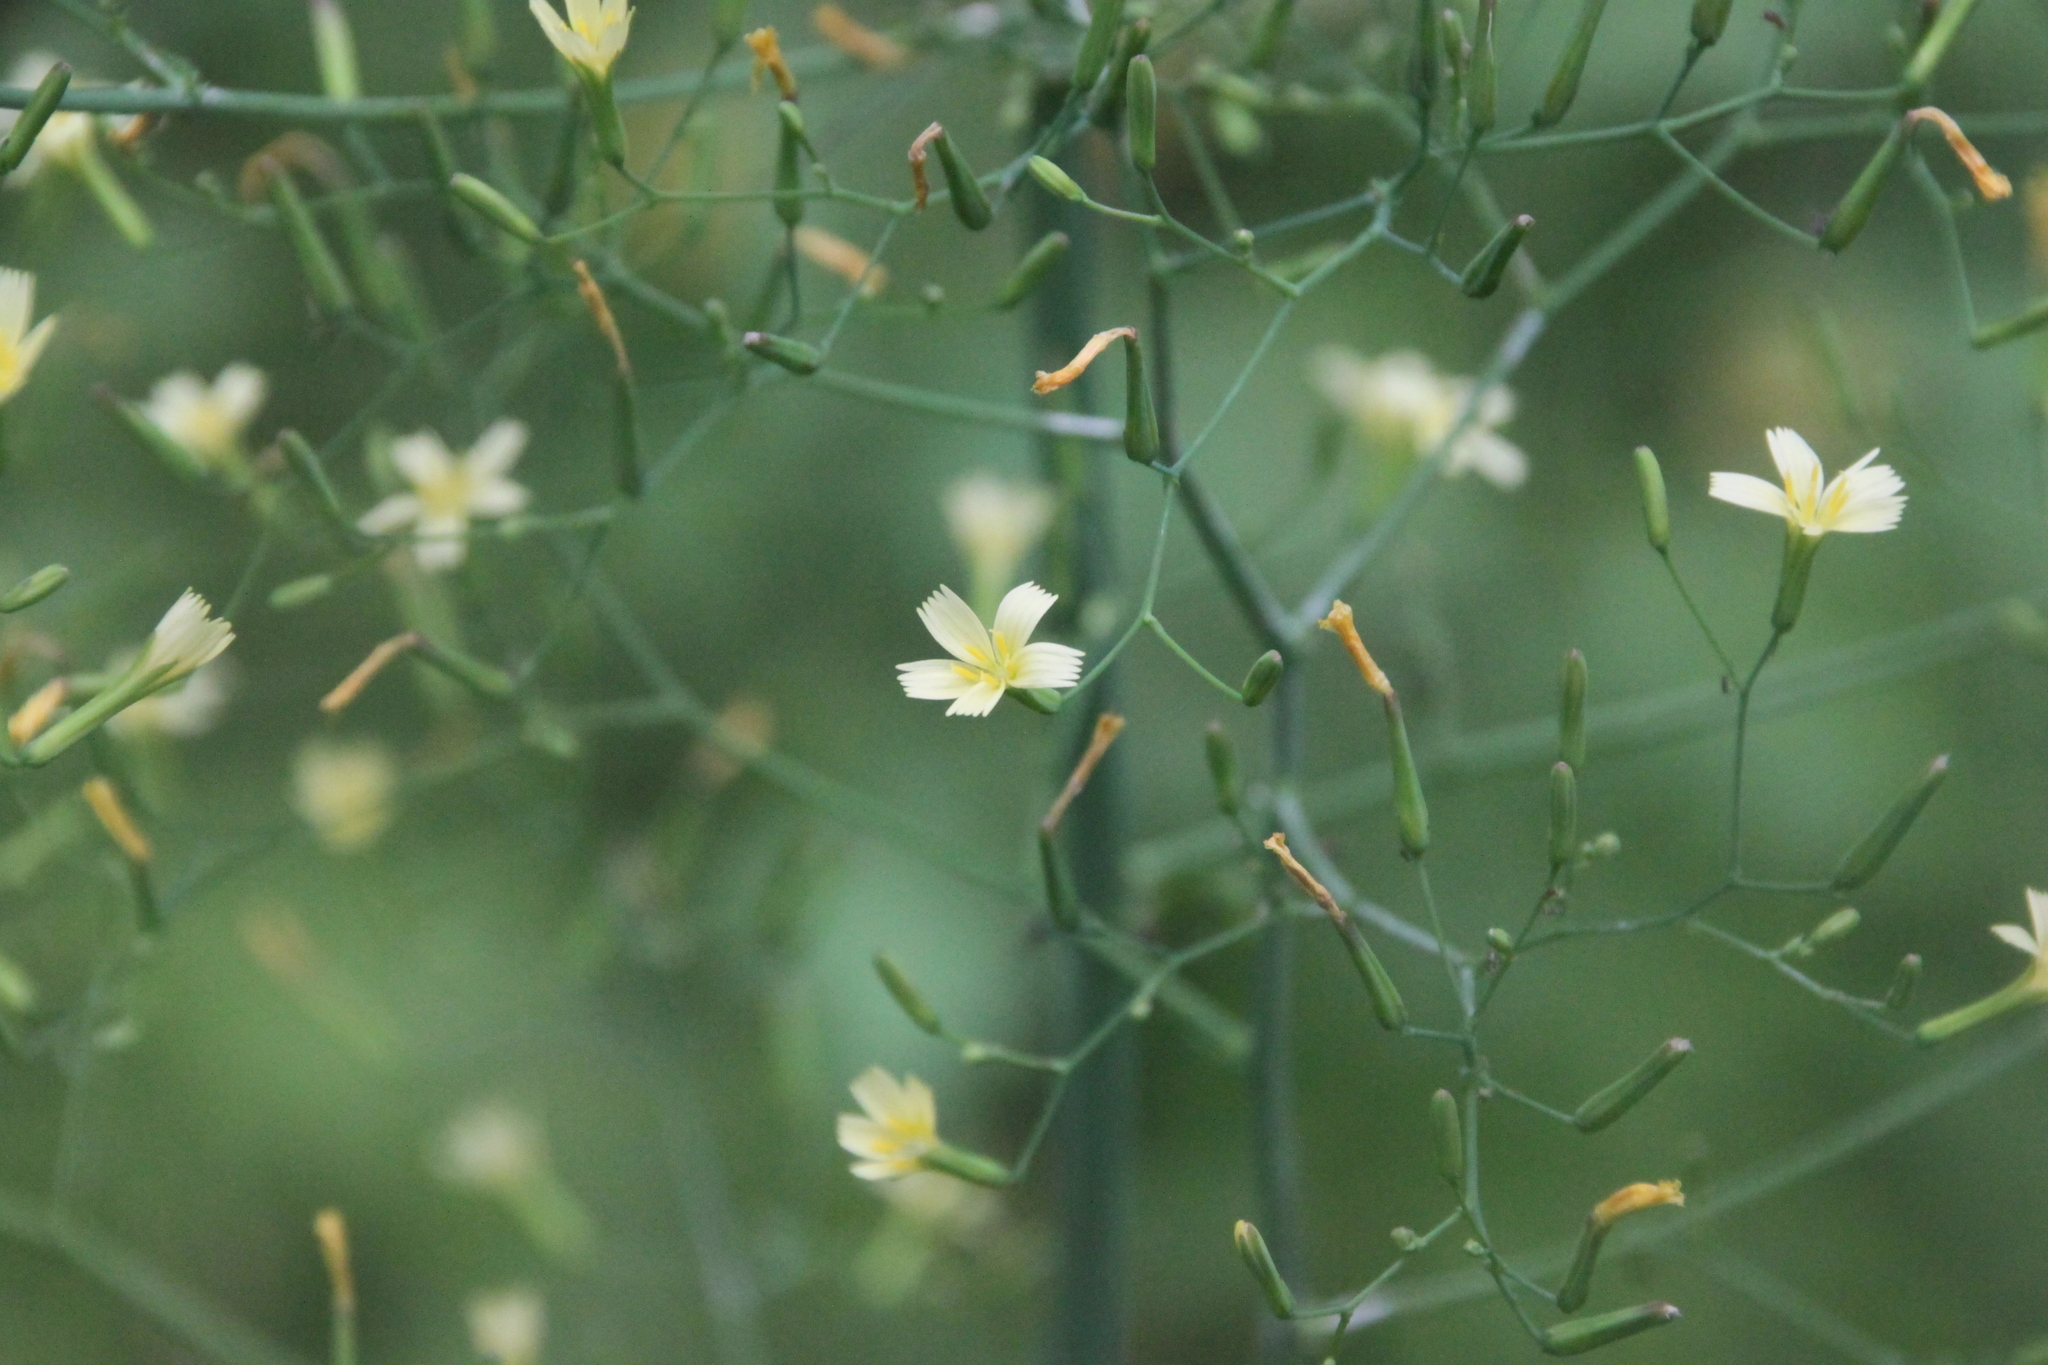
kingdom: Plantae
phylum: Tracheophyta
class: Magnoliopsida
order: Asterales
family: Asteraceae
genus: Mycelis
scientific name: Mycelis muralis
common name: Wall lettuce
